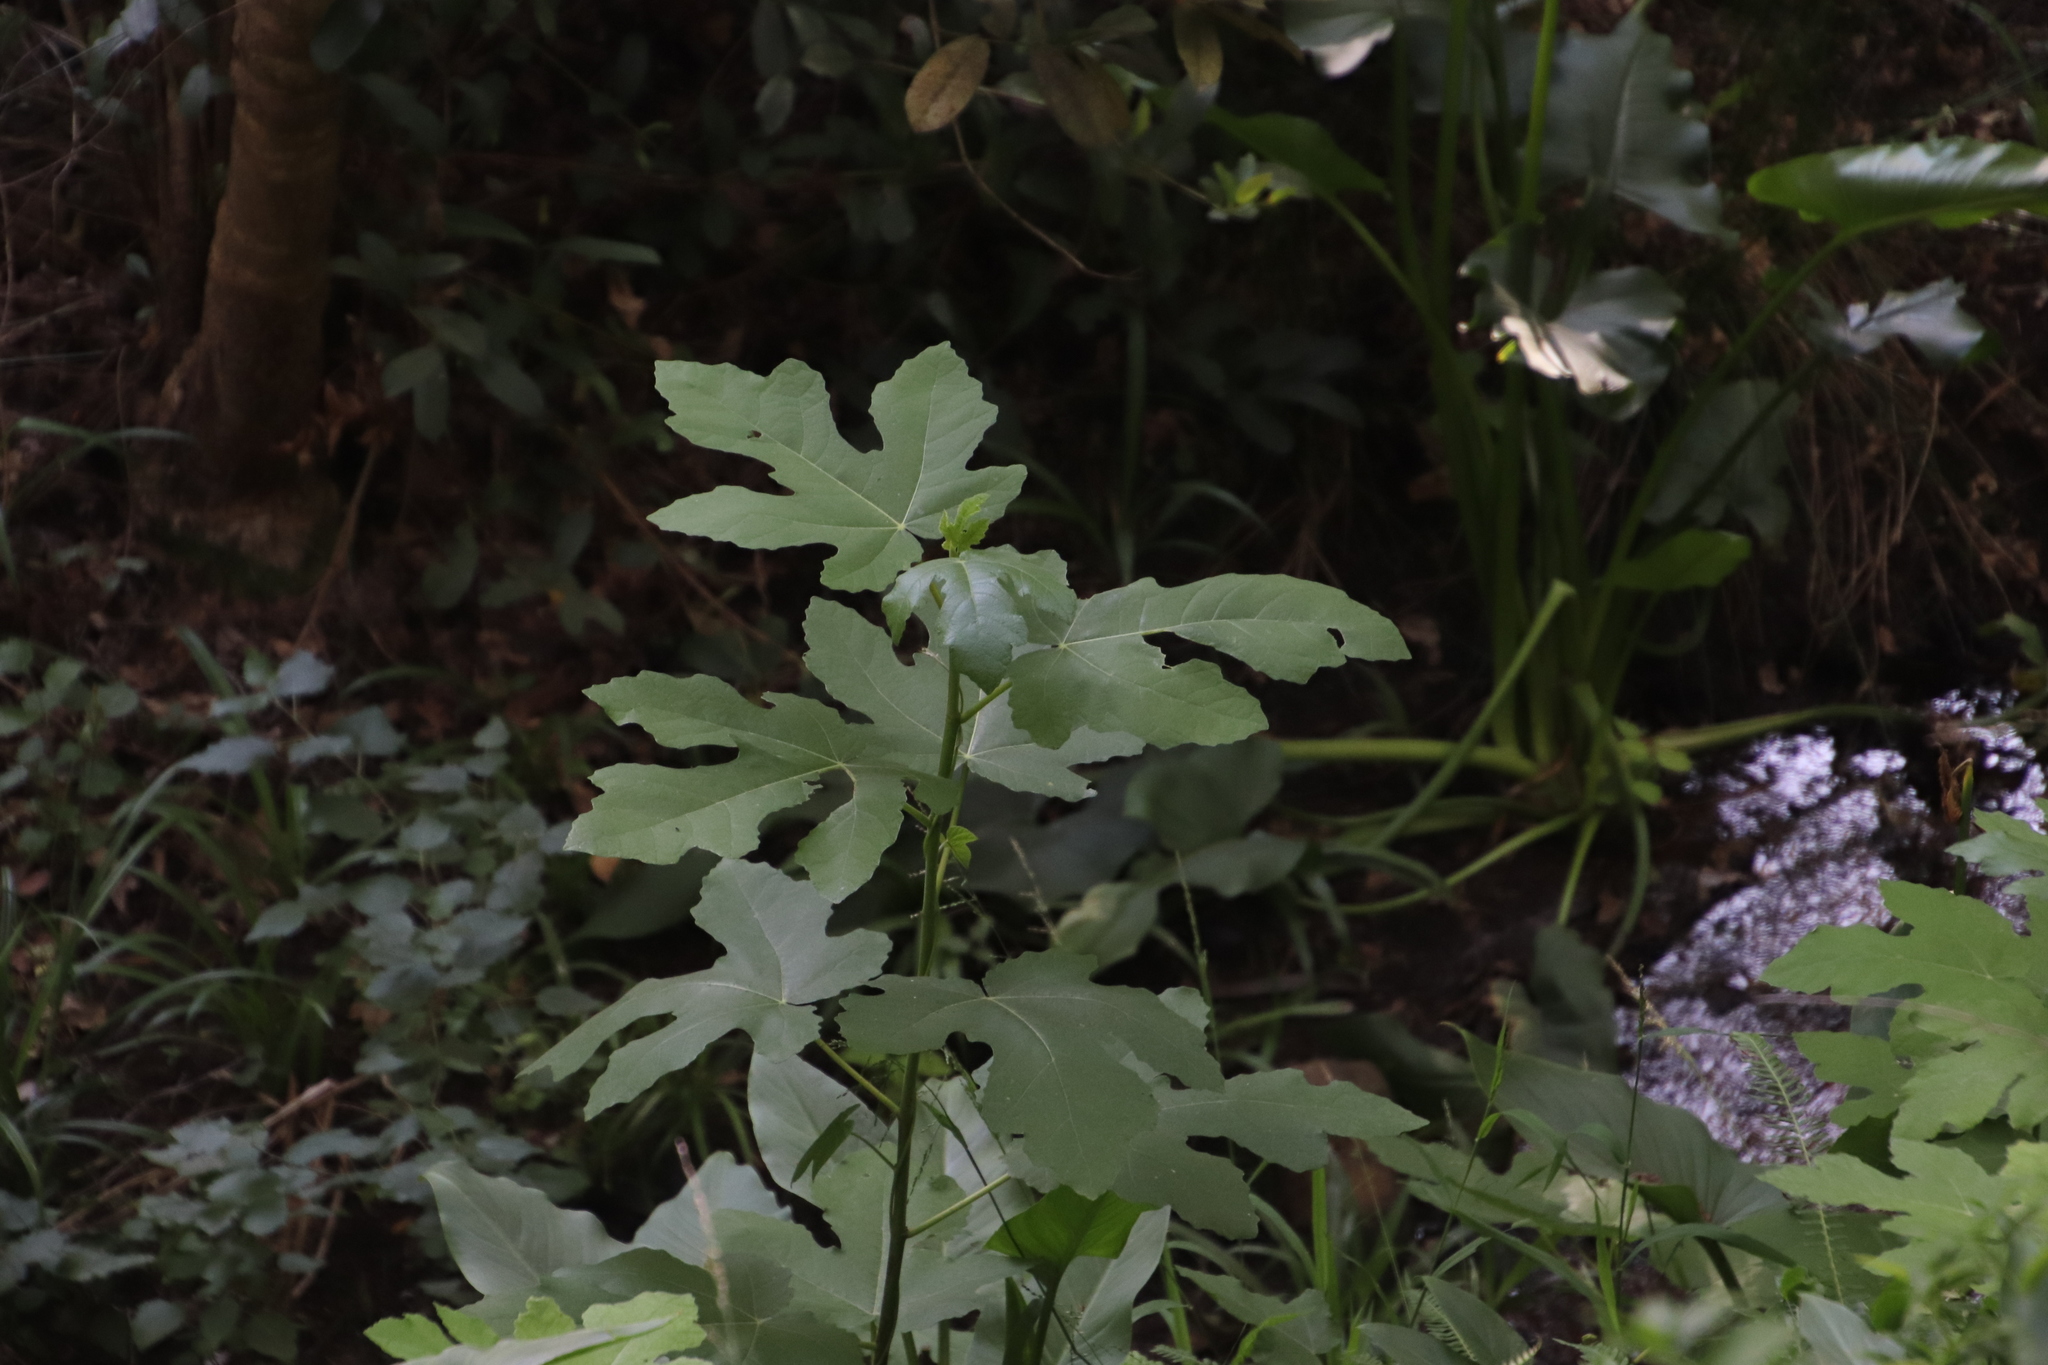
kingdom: Plantae
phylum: Tracheophyta
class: Magnoliopsida
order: Rosales
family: Moraceae
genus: Ficus
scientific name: Ficus carica
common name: Fig
